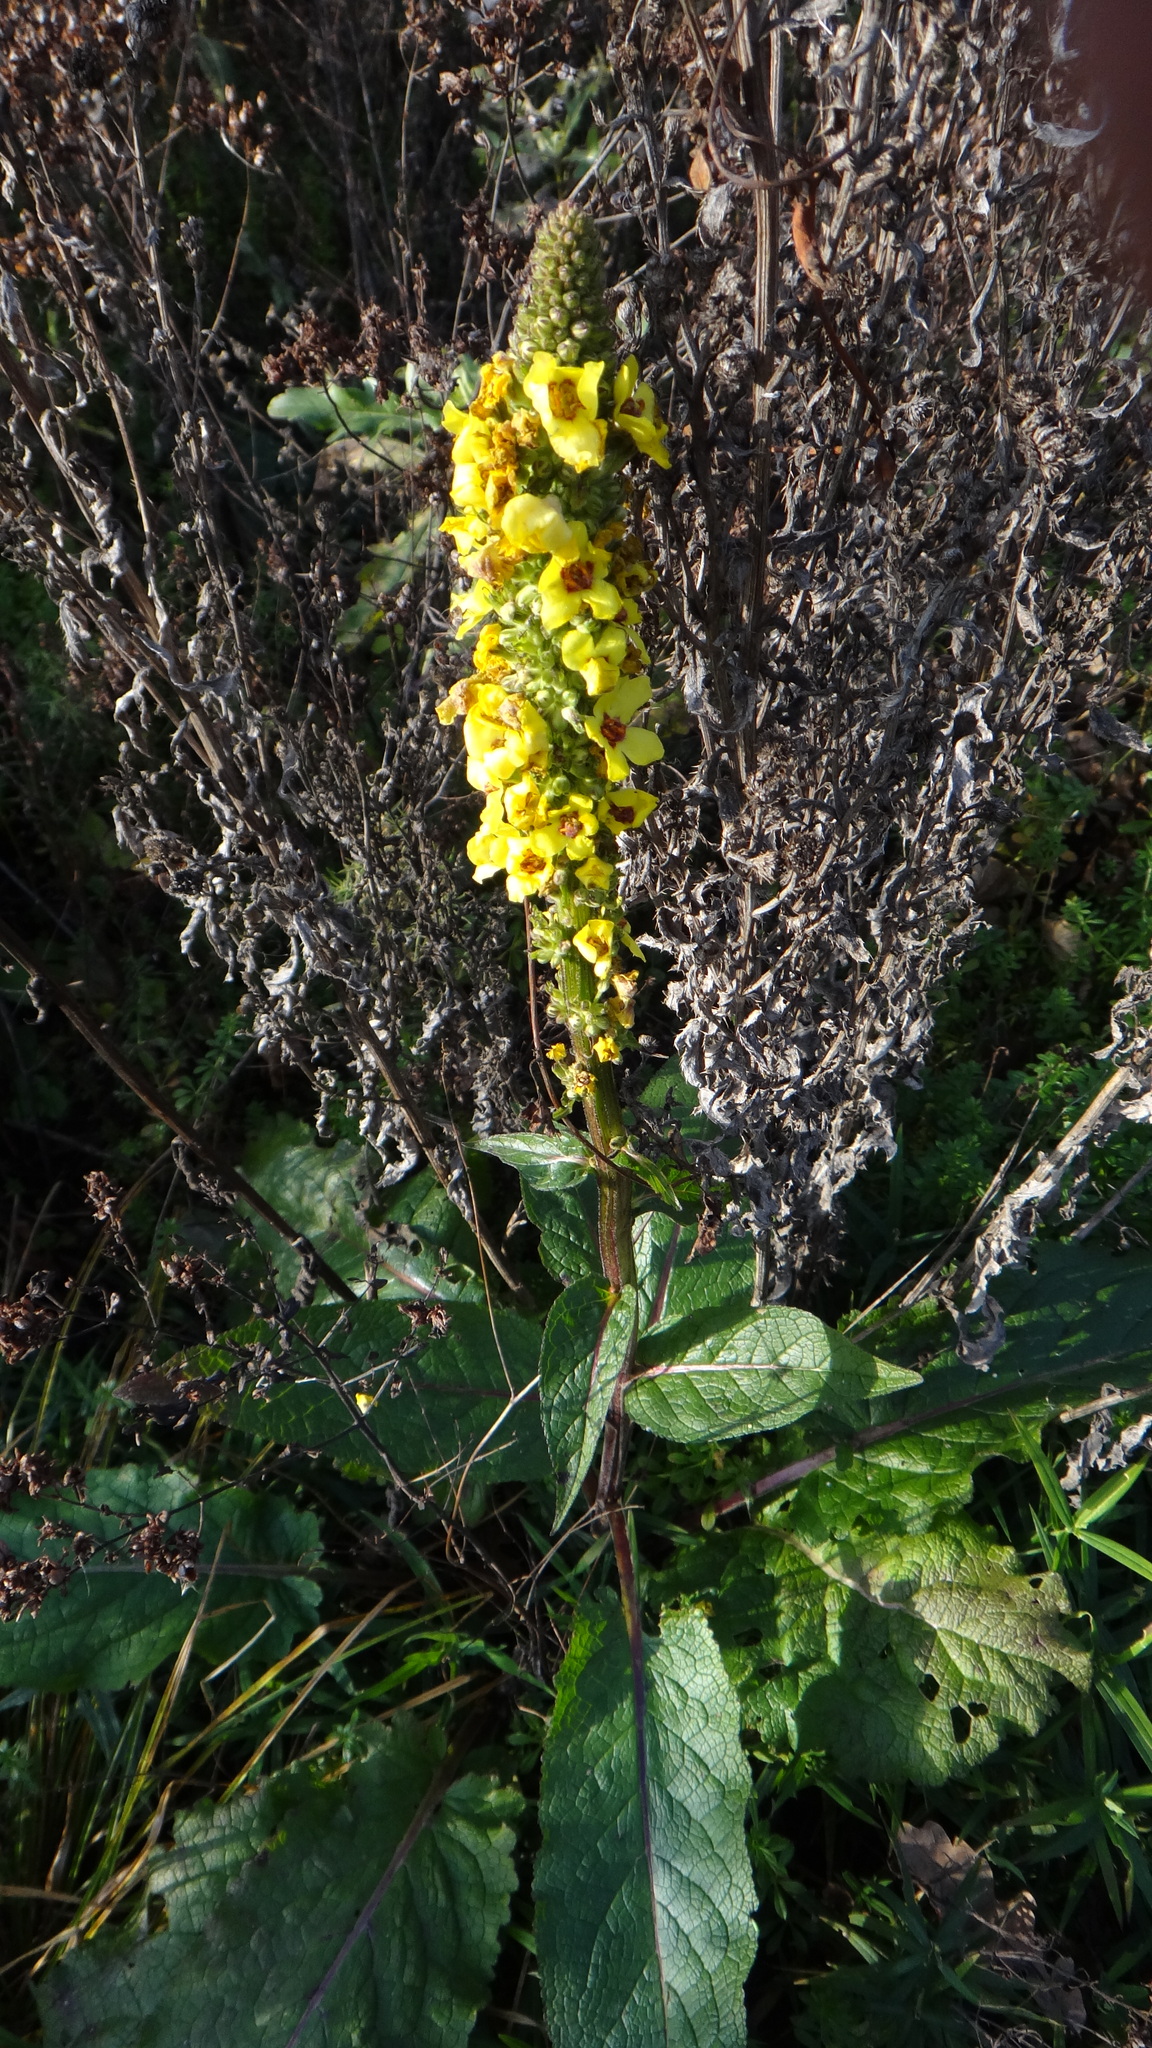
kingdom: Plantae
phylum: Tracheophyta
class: Magnoliopsida
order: Lamiales
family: Scrophulariaceae
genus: Verbascum
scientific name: Verbascum nigrum
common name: Dark mullein
